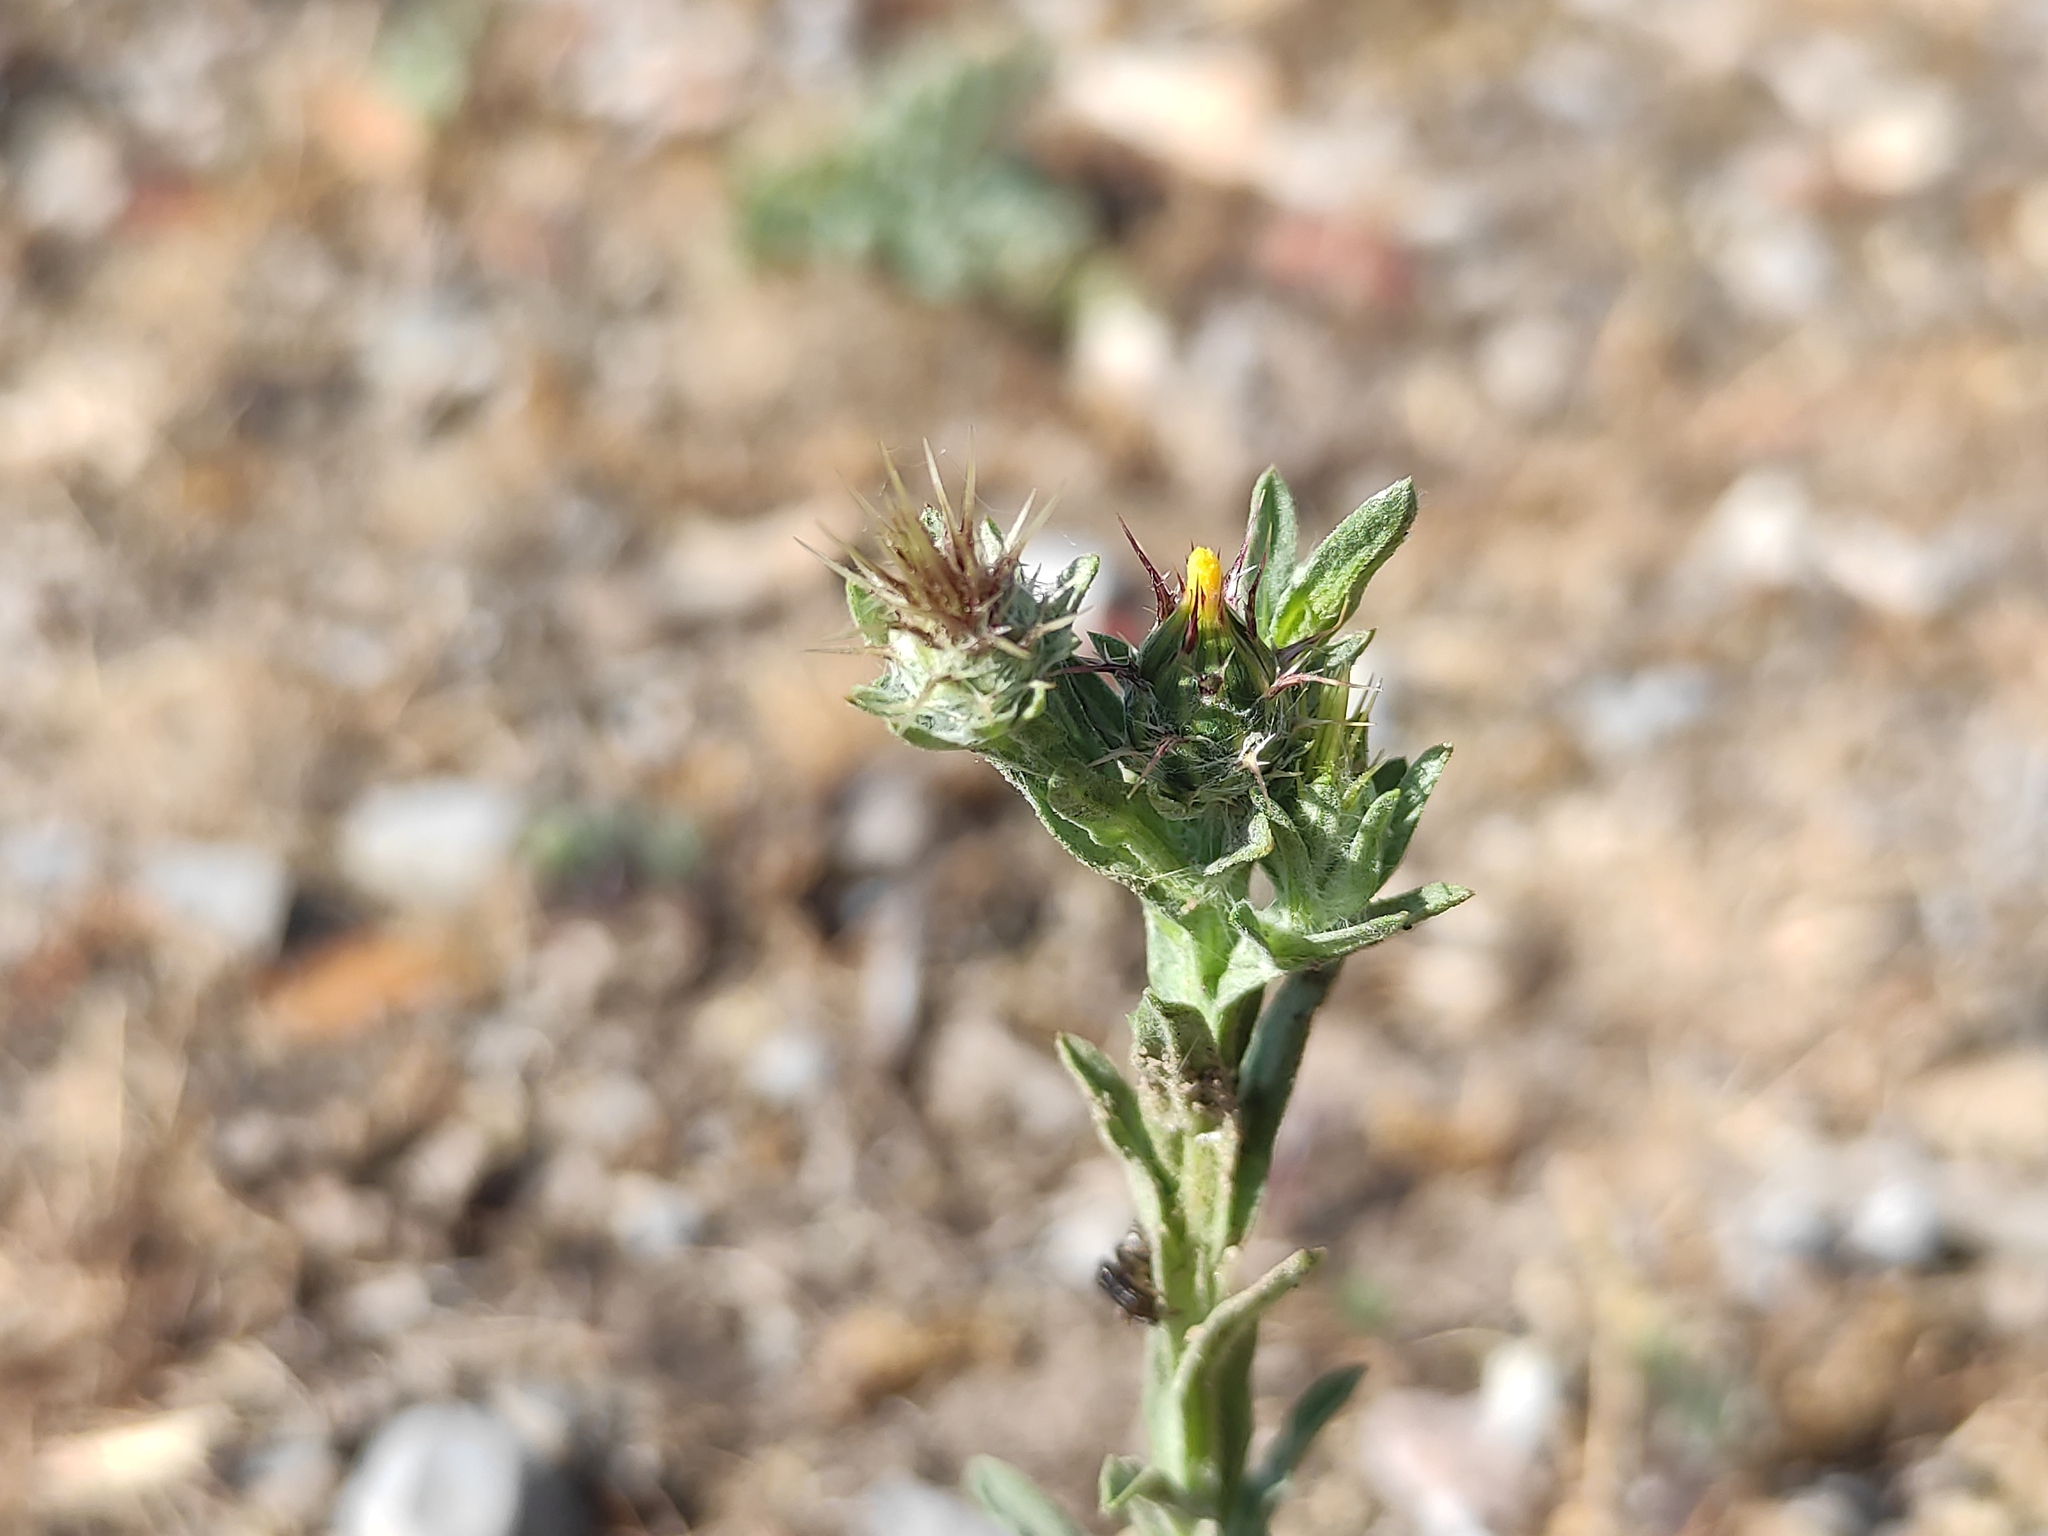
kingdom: Plantae
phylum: Tracheophyta
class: Magnoliopsida
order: Asterales
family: Asteraceae
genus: Centaurea
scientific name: Centaurea melitensis
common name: Maltese star-thistle
